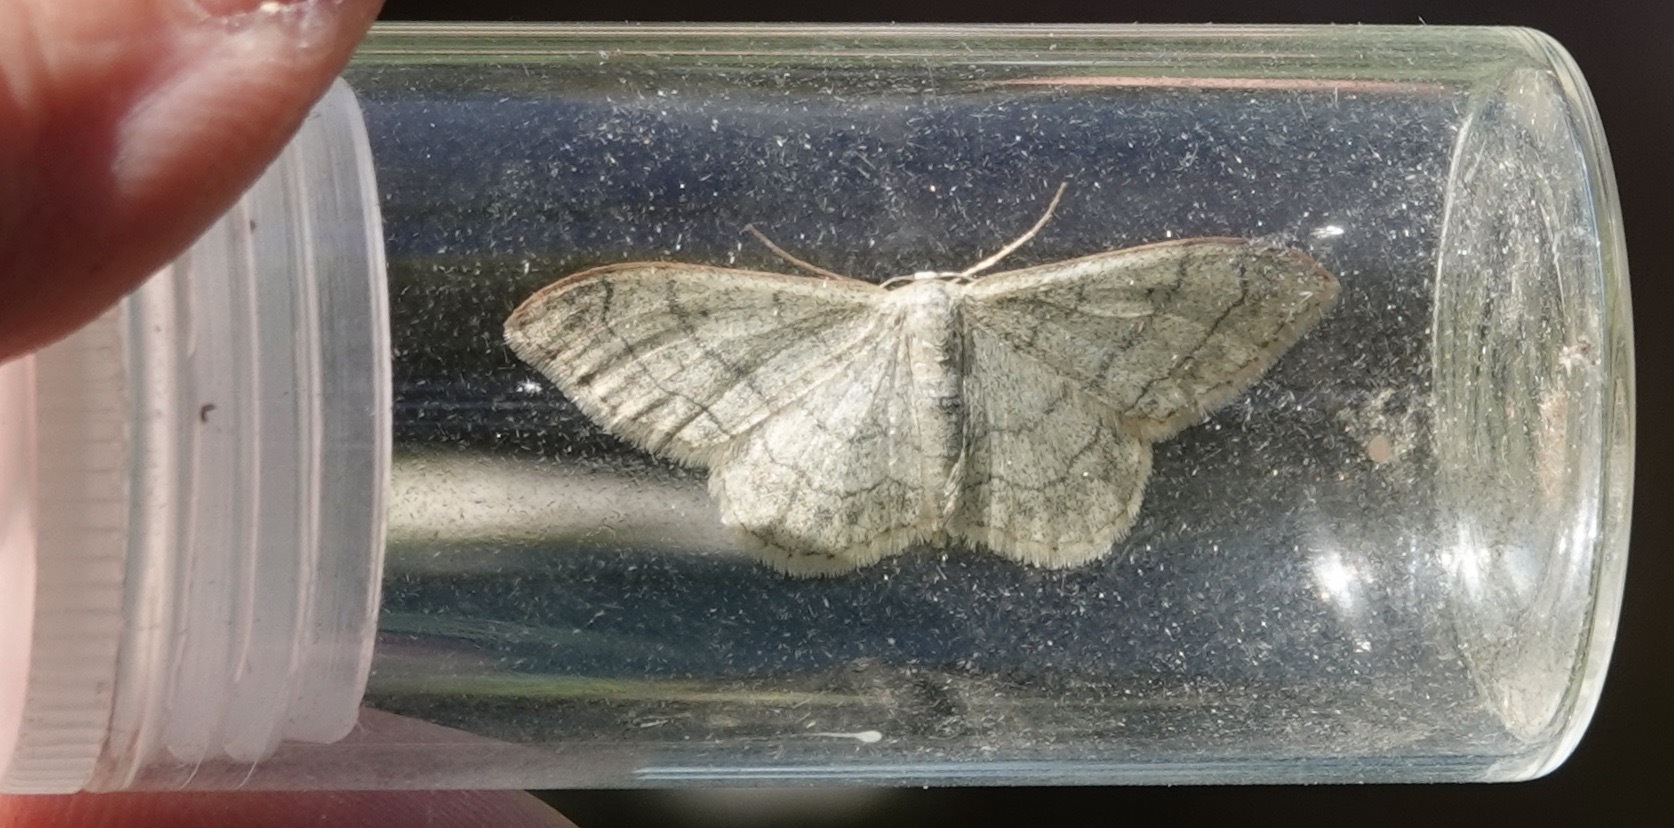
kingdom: Animalia
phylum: Arthropoda
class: Insecta
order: Lepidoptera
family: Geometridae
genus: Idaea
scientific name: Idaea aversata
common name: Riband wave
